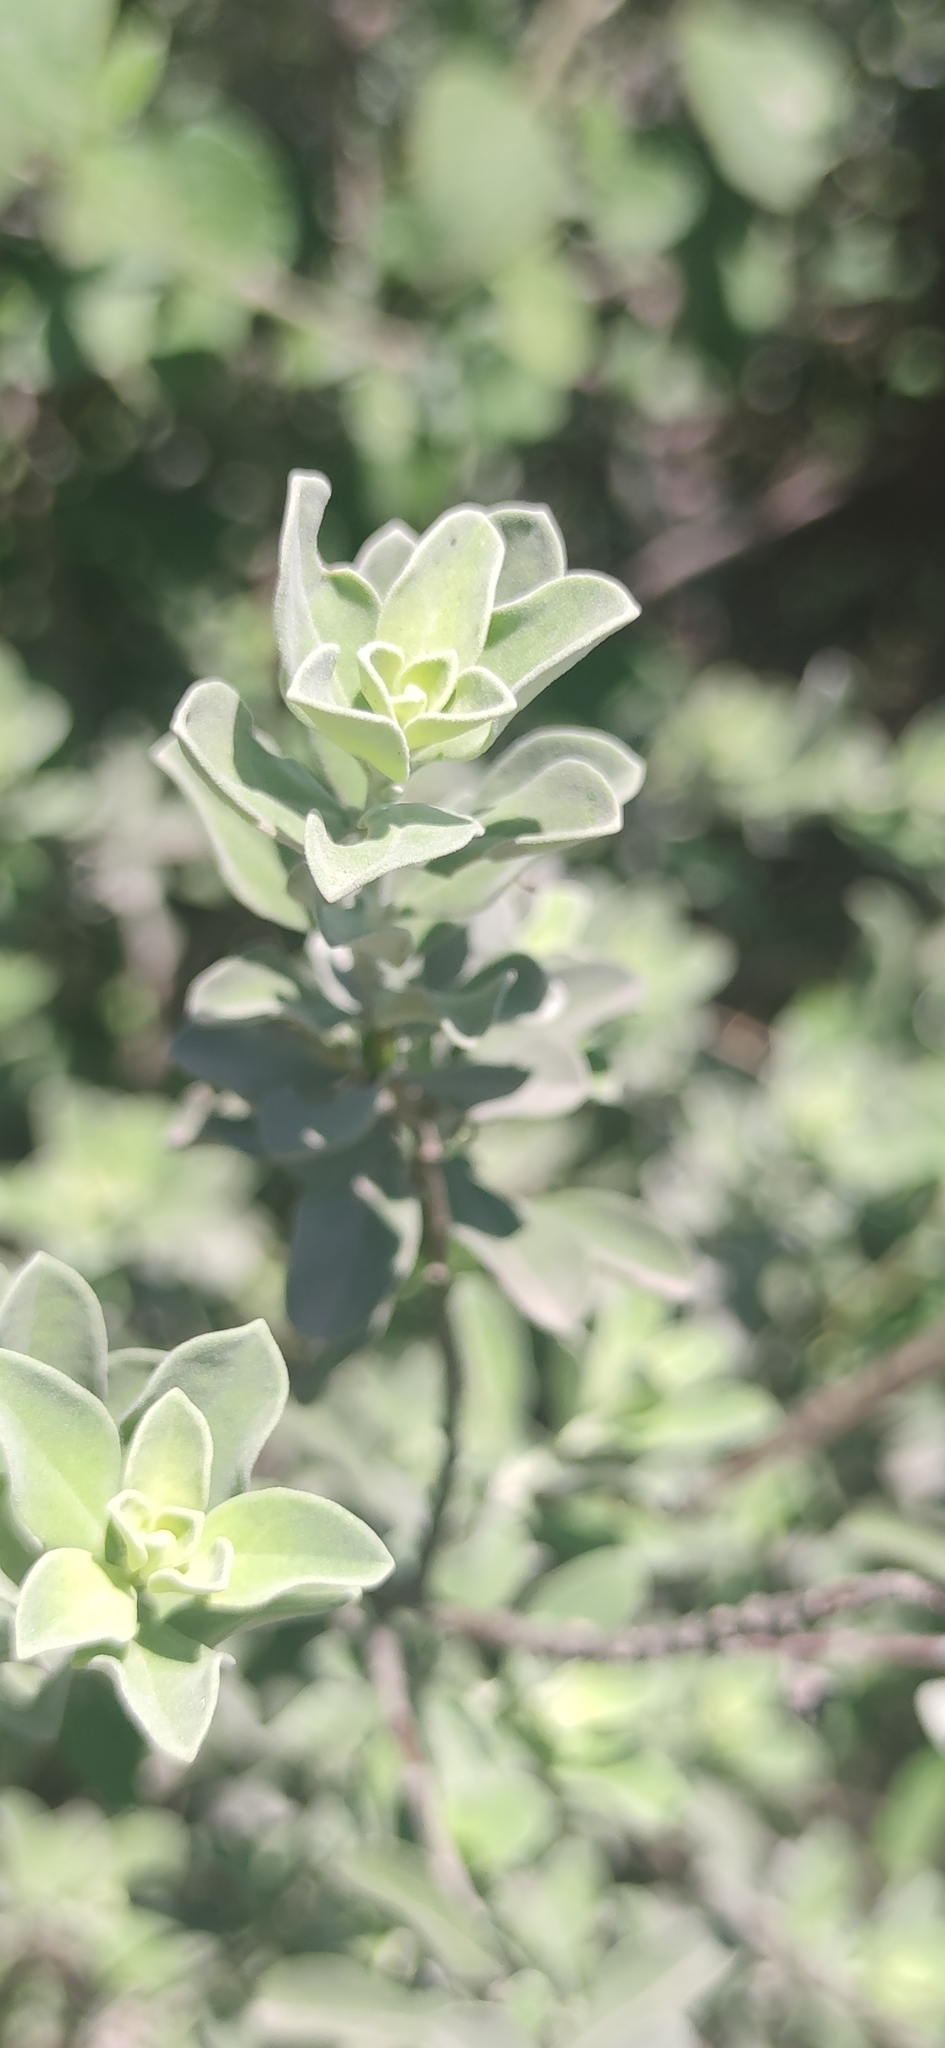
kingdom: Plantae
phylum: Tracheophyta
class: Magnoliopsida
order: Lamiales
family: Scrophulariaceae
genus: Leucophyllum
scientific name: Leucophyllum frutescens
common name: Texas silverleaf
